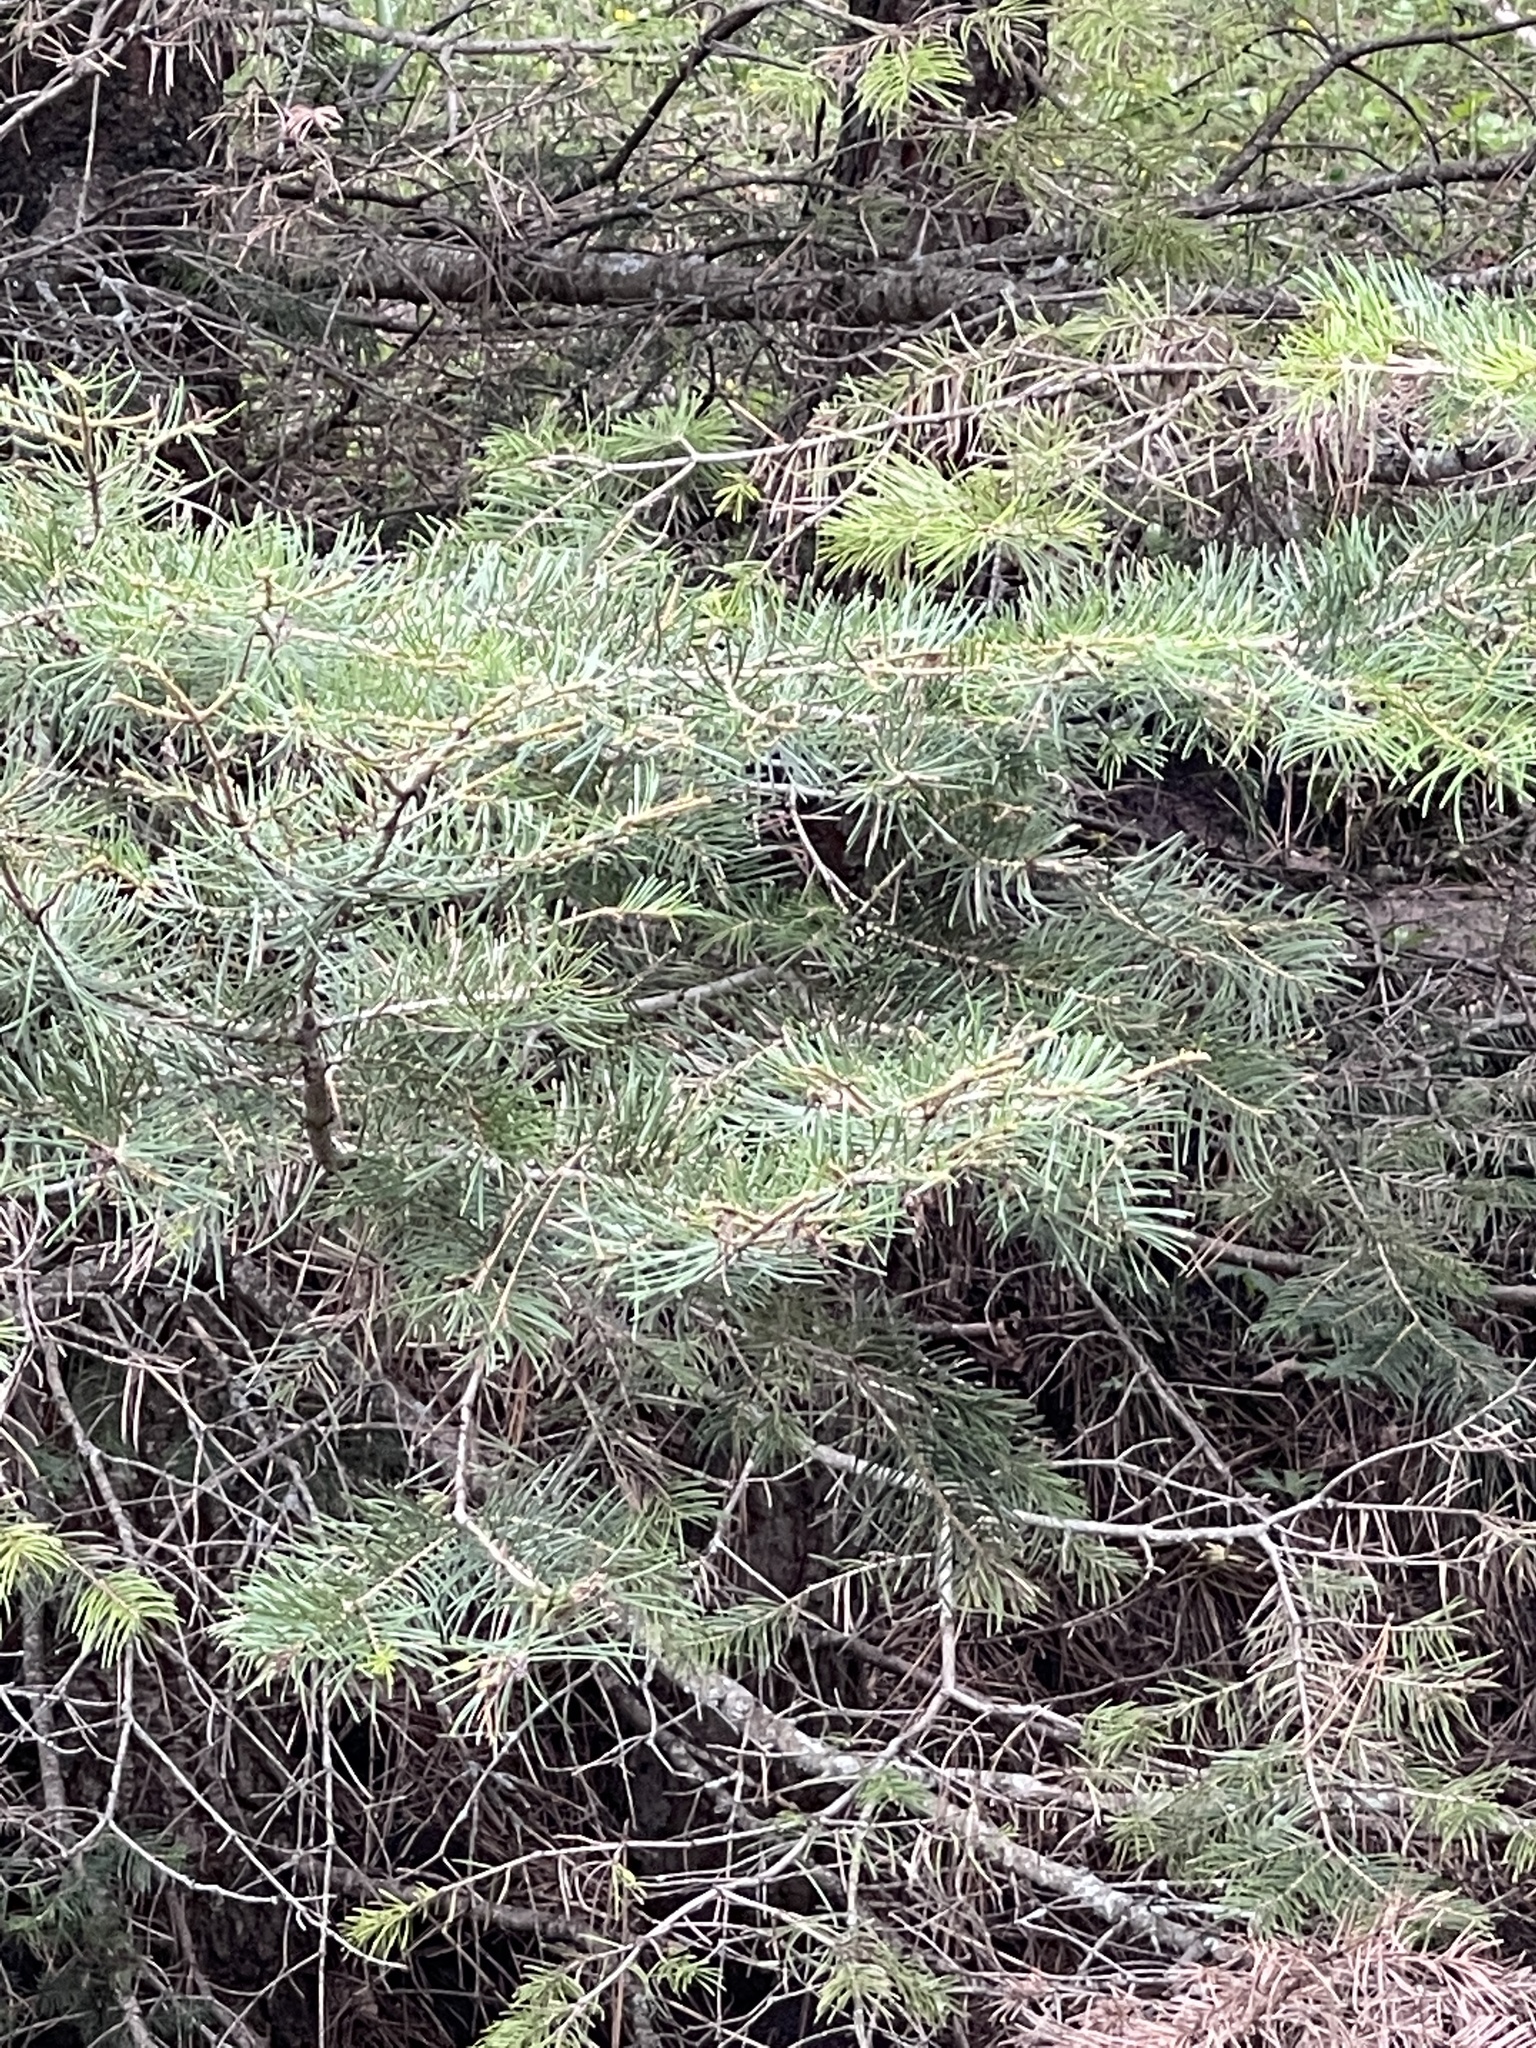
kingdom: Plantae
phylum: Tracheophyta
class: Pinopsida
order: Pinales
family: Pinaceae
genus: Abies
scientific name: Abies concolor
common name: Colorado fir
